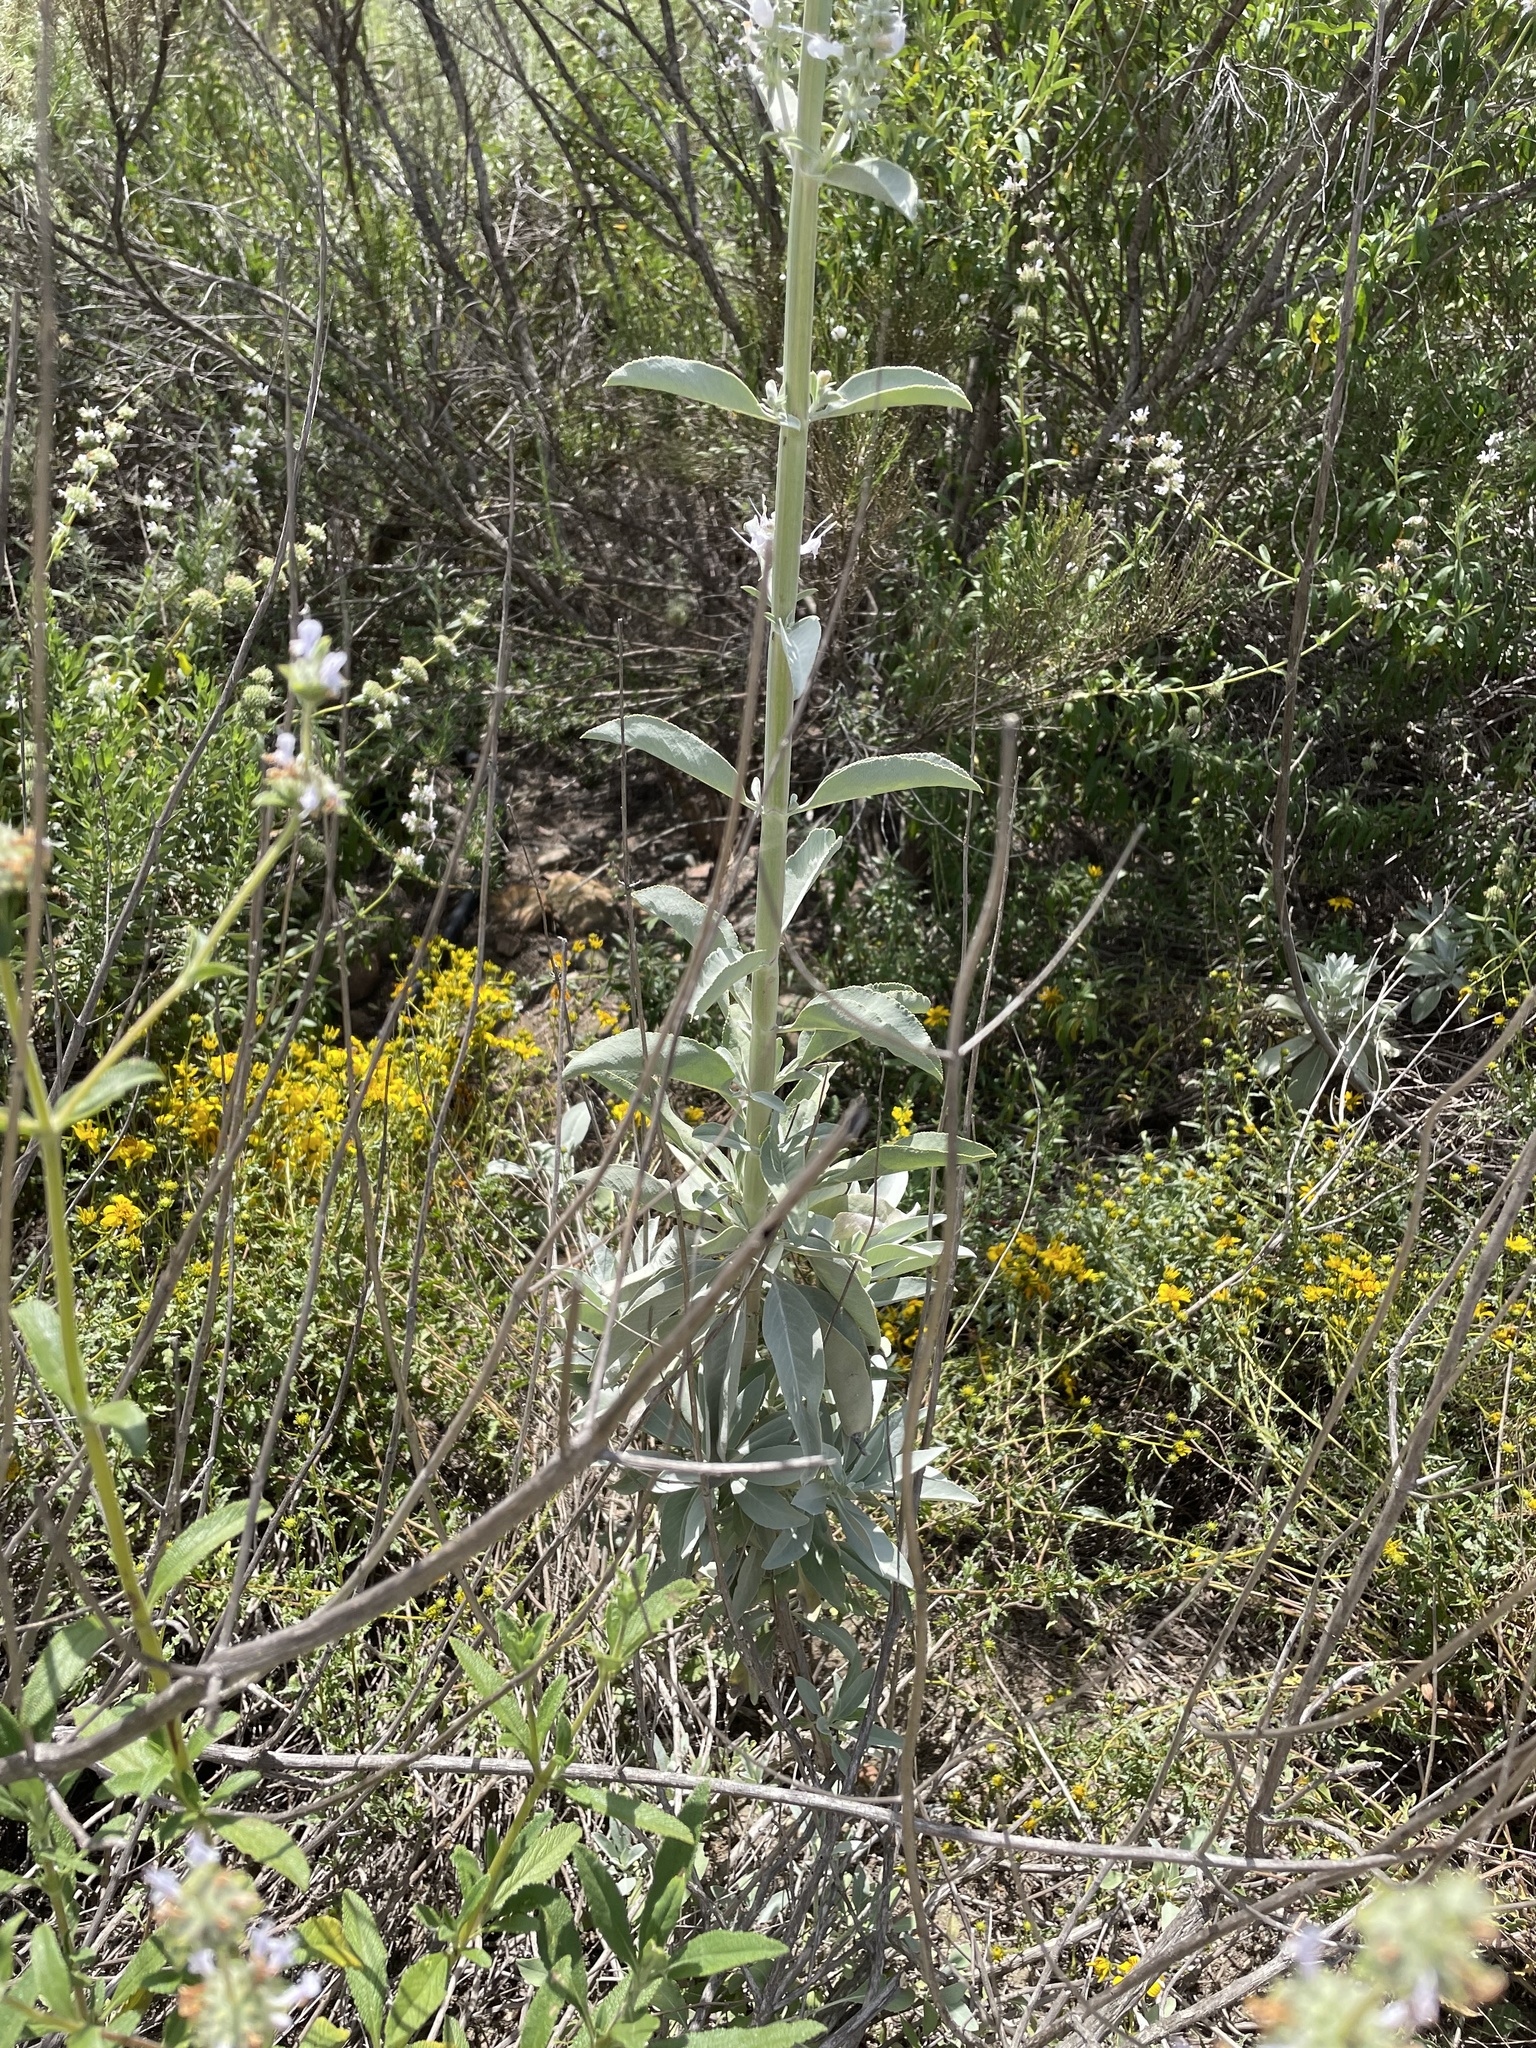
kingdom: Plantae
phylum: Tracheophyta
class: Magnoliopsida
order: Lamiales
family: Lamiaceae
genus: Salvia
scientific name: Salvia apiana
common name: White sage
